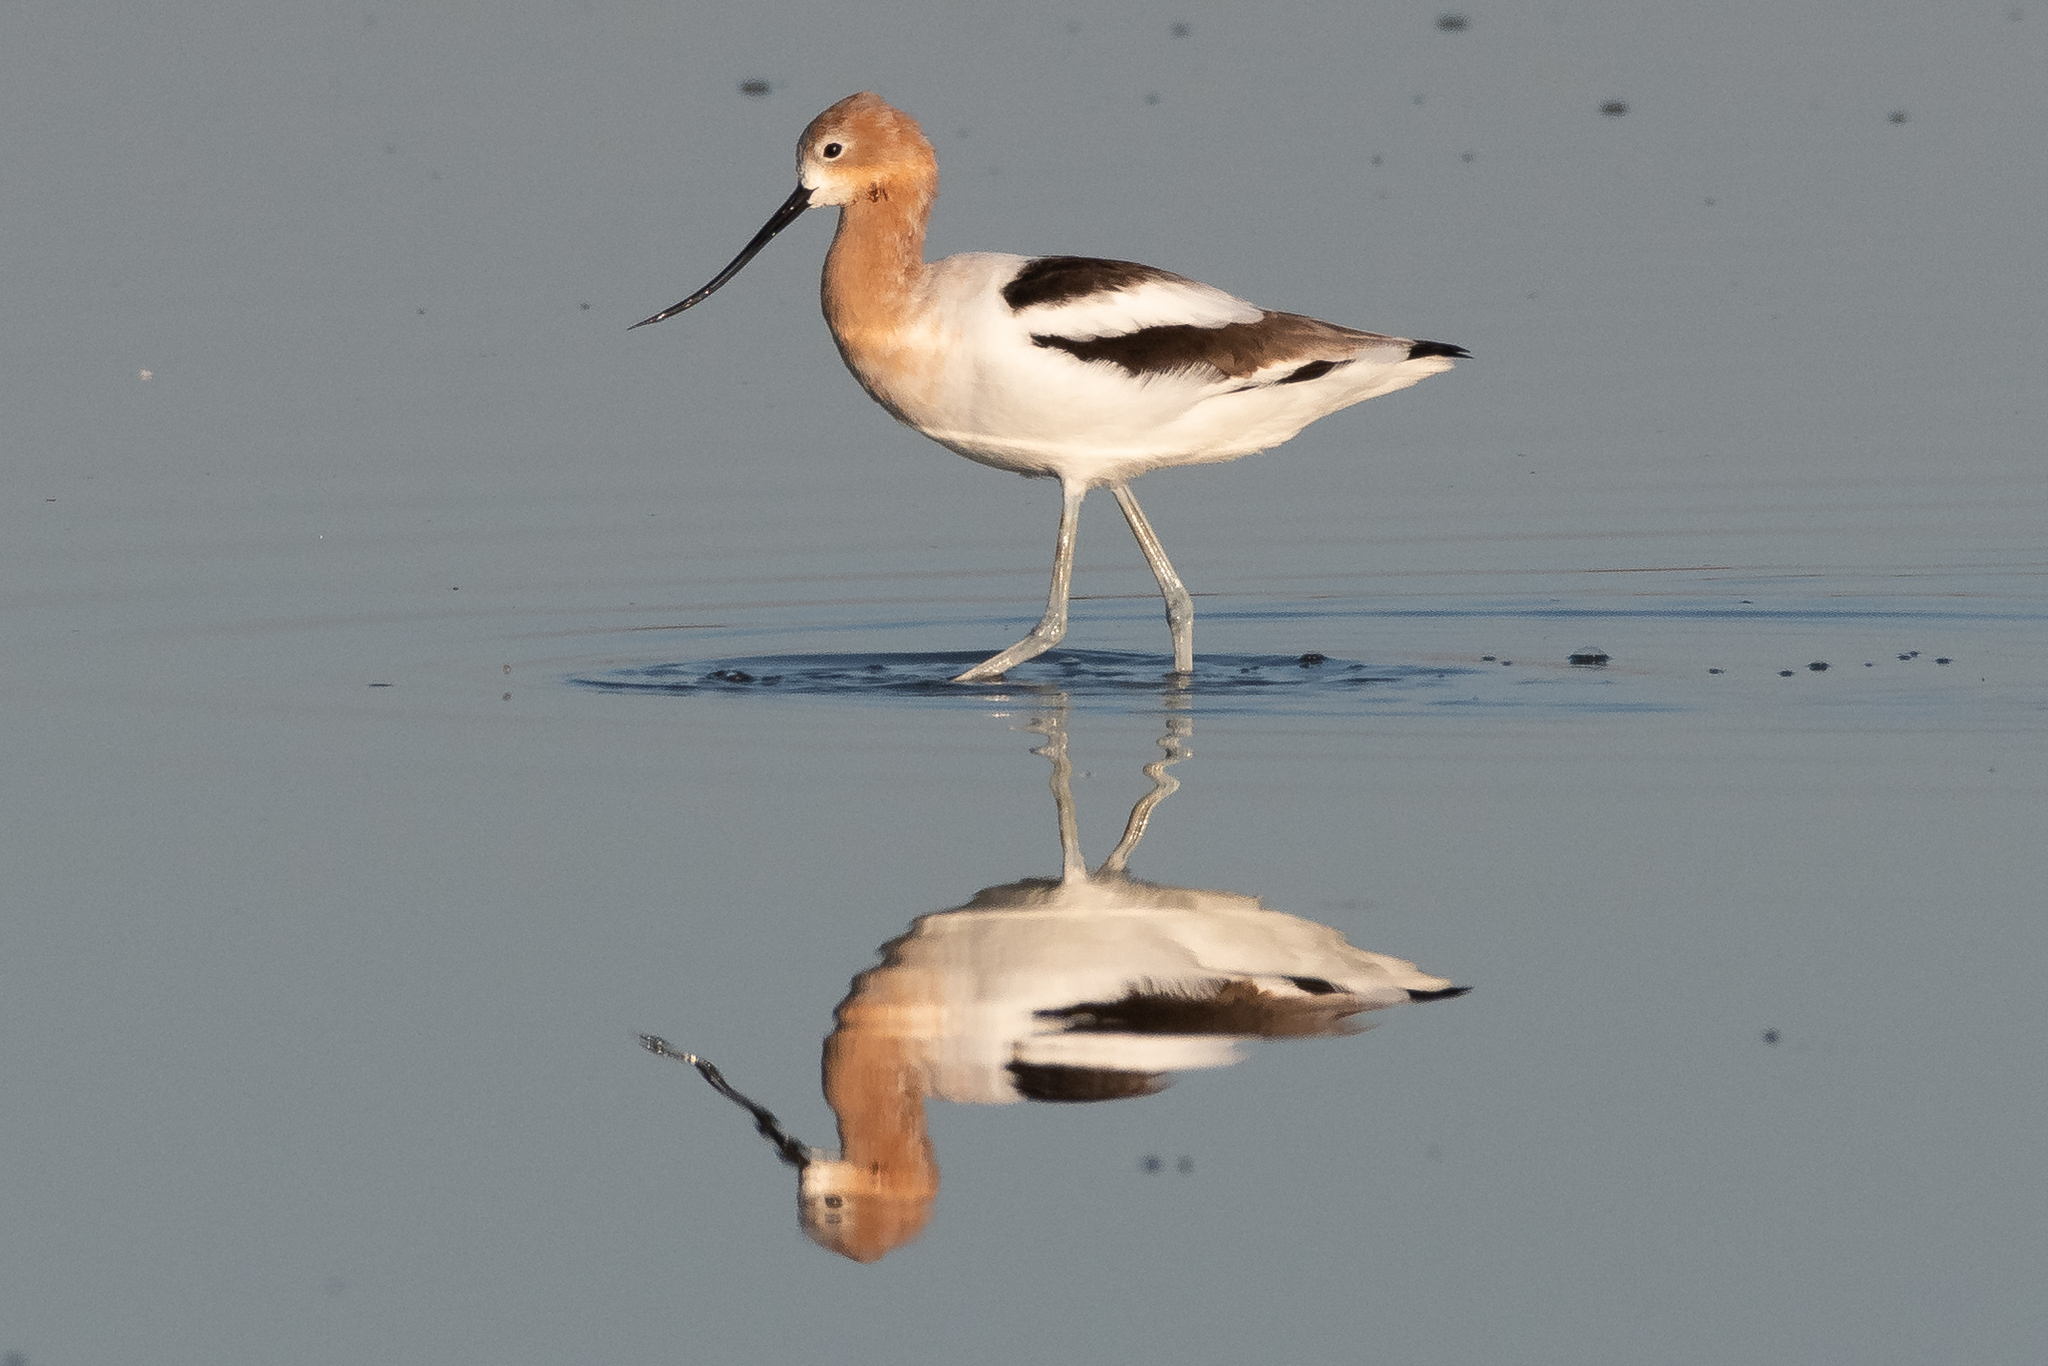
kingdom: Animalia
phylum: Chordata
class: Aves
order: Charadriiformes
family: Recurvirostridae
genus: Recurvirostra
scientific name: Recurvirostra americana
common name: American avocet
